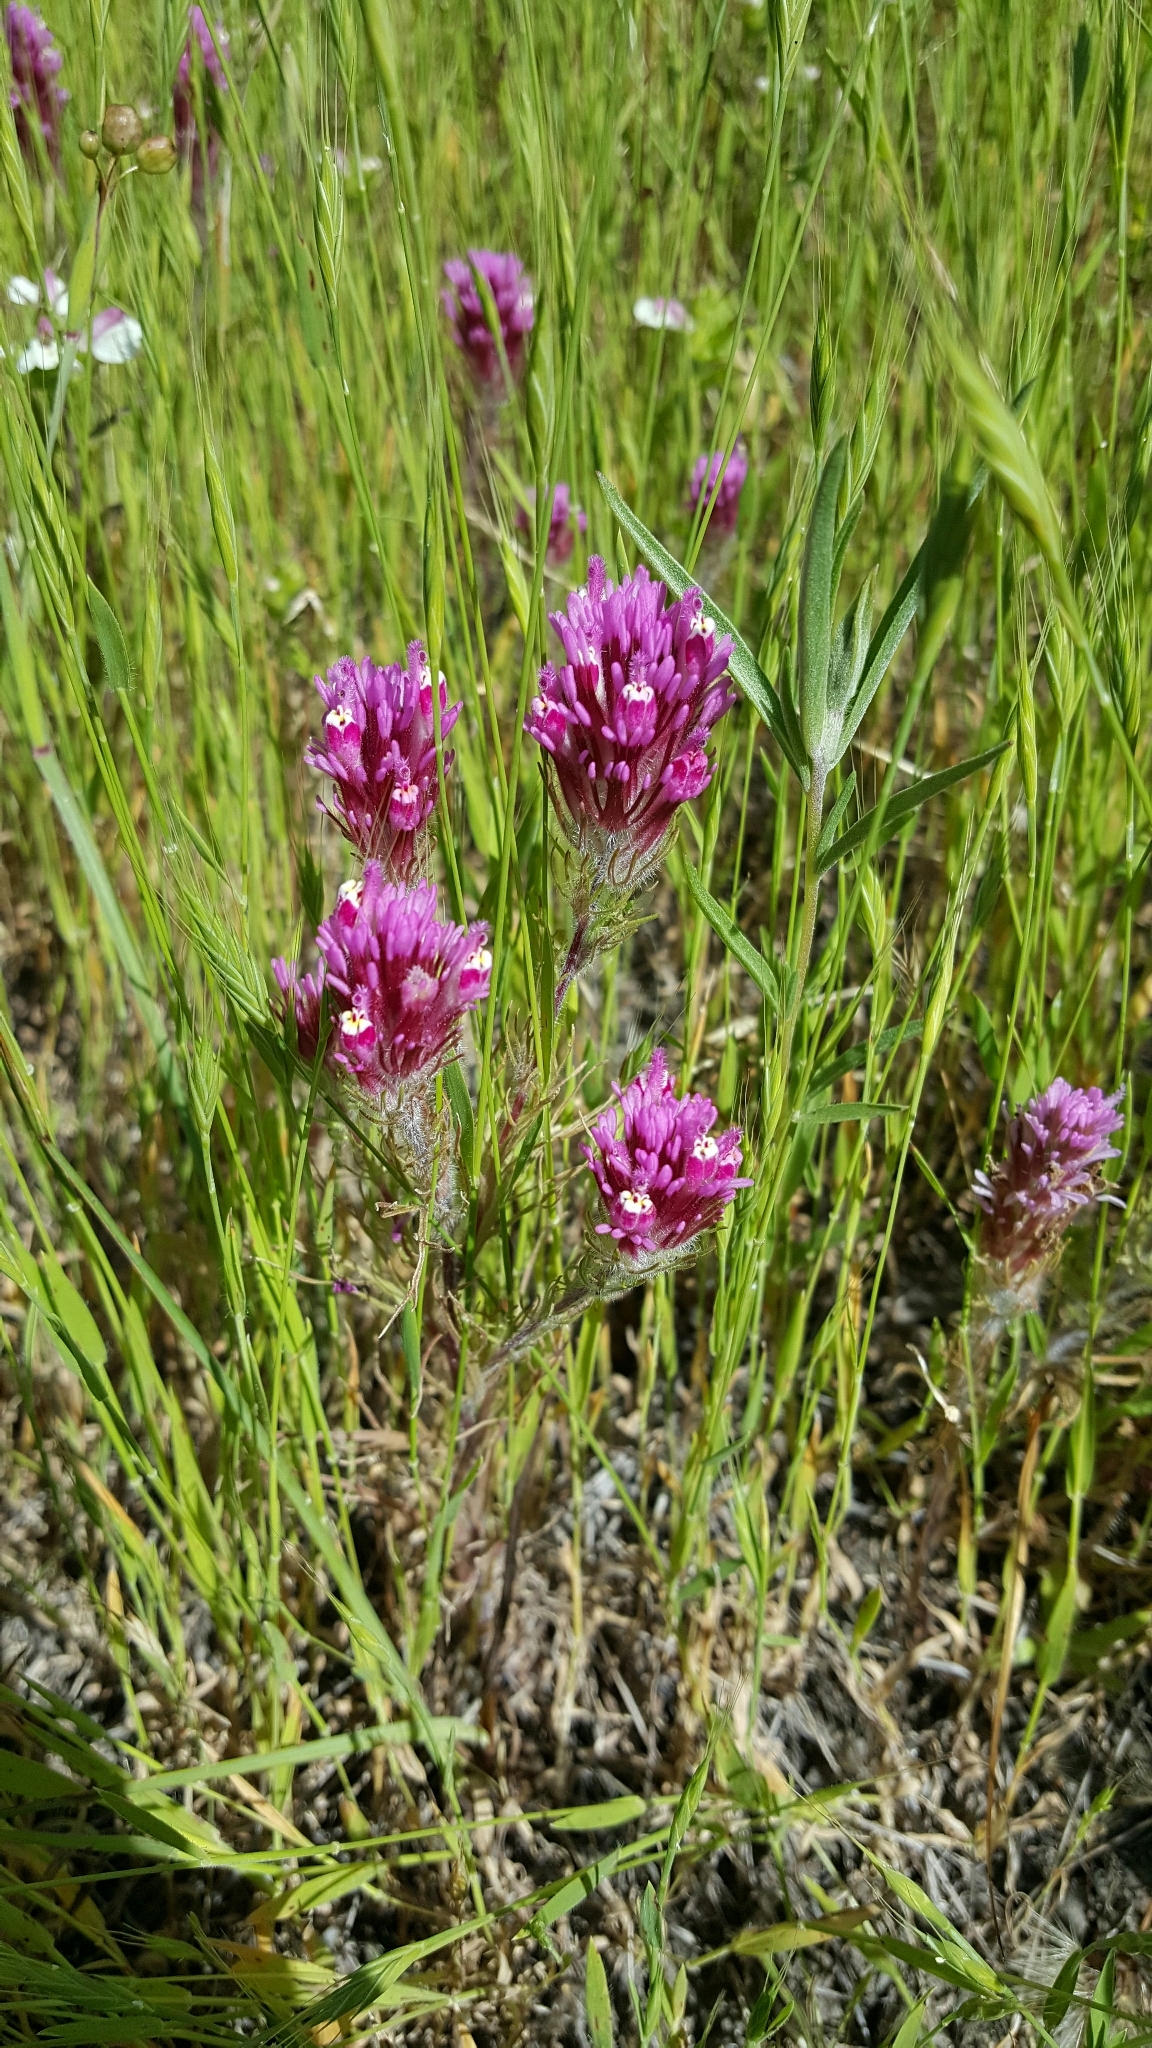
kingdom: Plantae
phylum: Tracheophyta
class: Magnoliopsida
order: Lamiales
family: Orobanchaceae
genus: Castilleja
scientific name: Castilleja exserta
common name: Purple owl-clover
